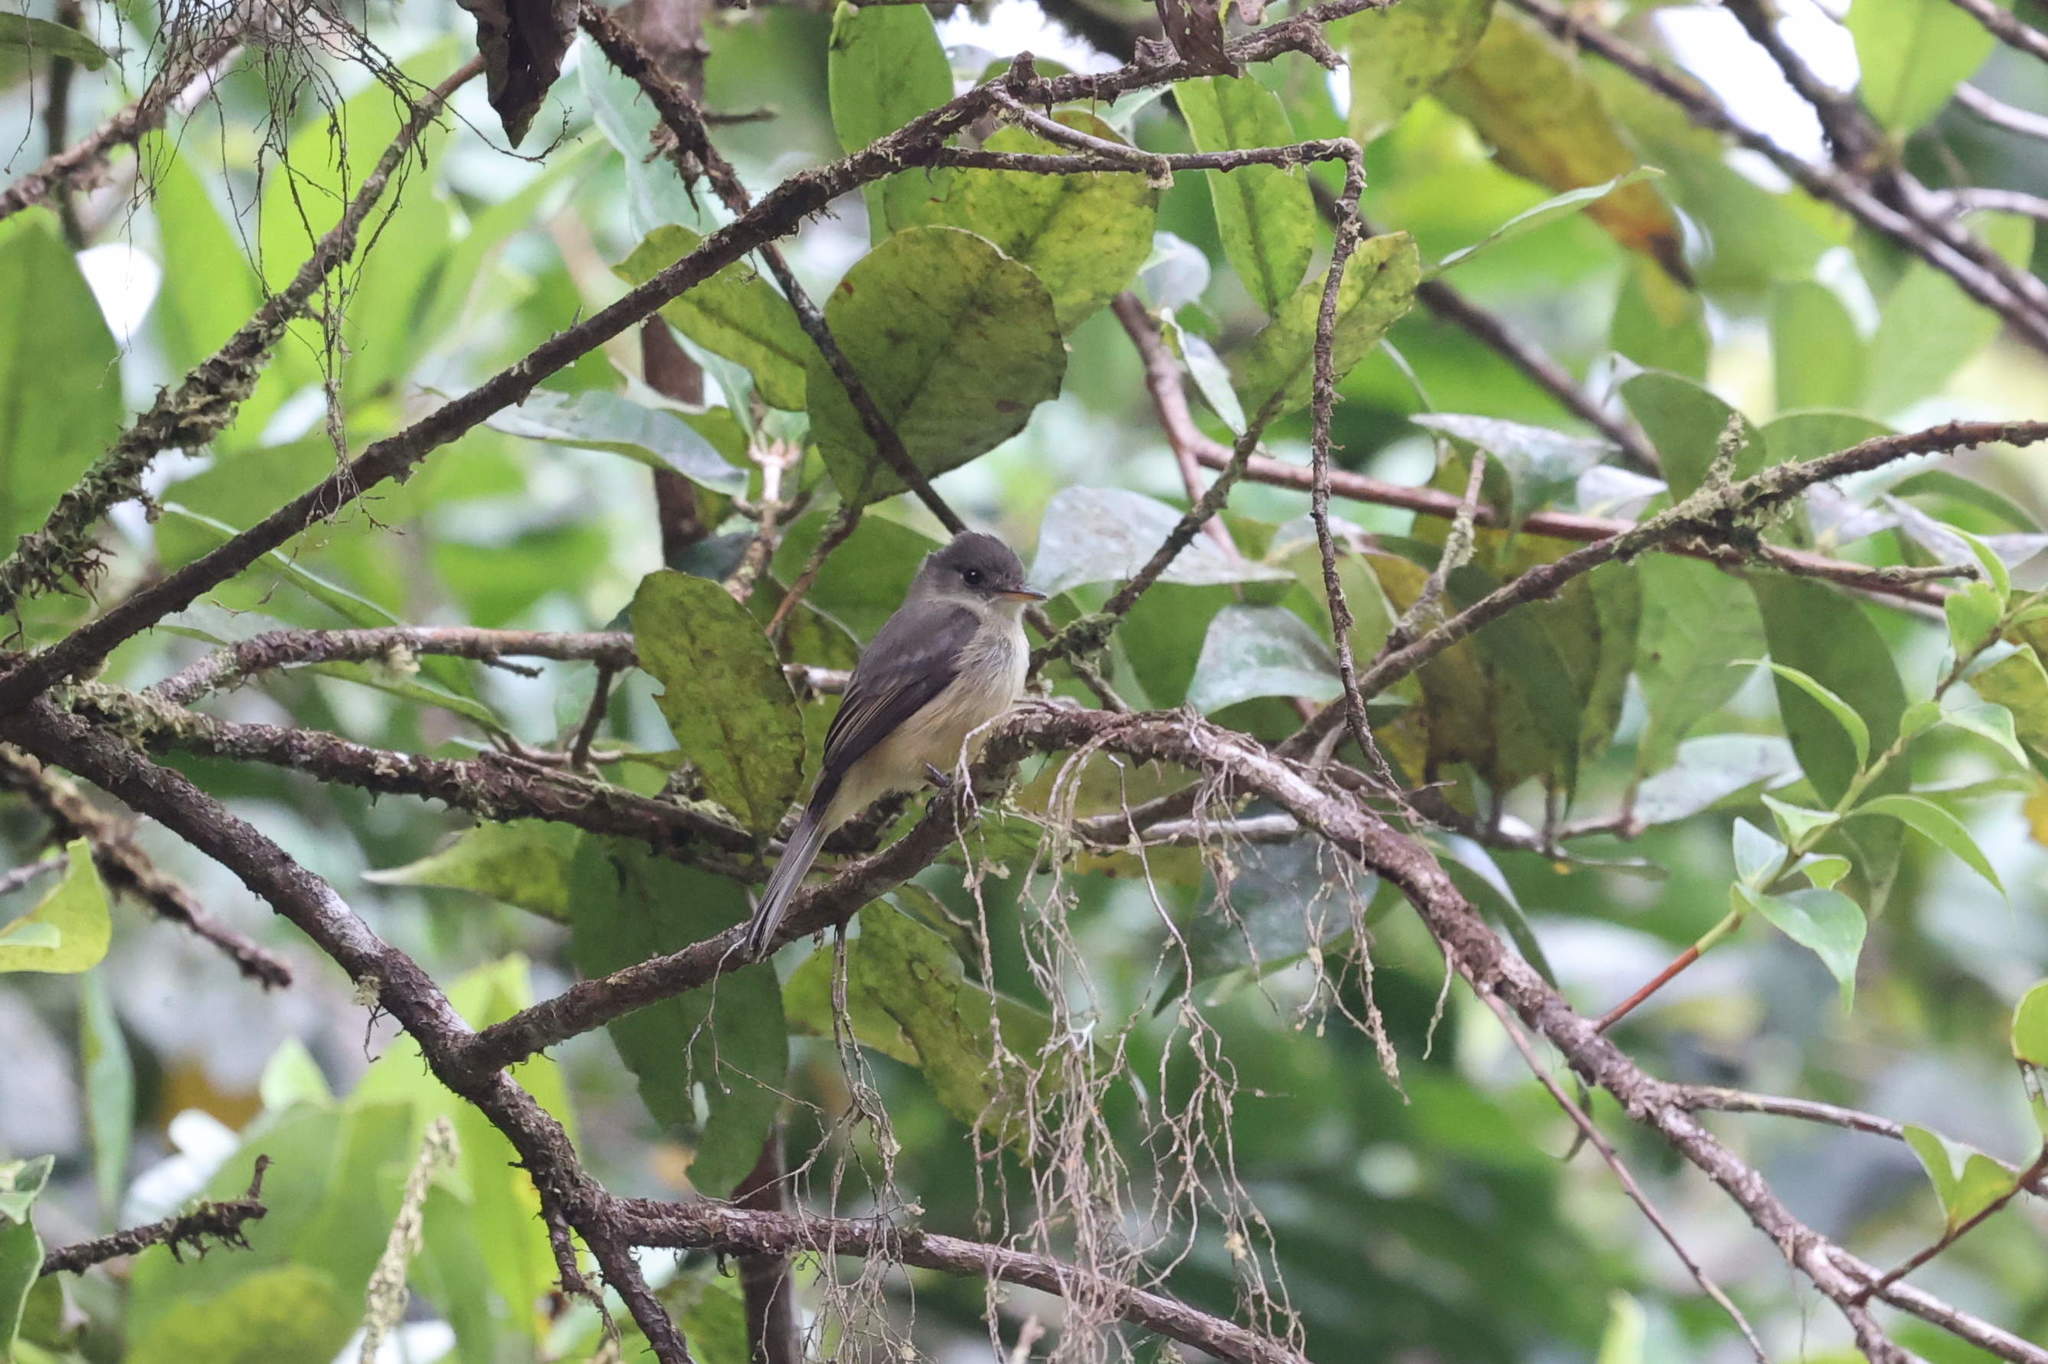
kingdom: Animalia
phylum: Chordata
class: Aves
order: Passeriformes
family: Tyrannidae
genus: Contopus
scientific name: Contopus latirostris
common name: Lesser antillean pewee
